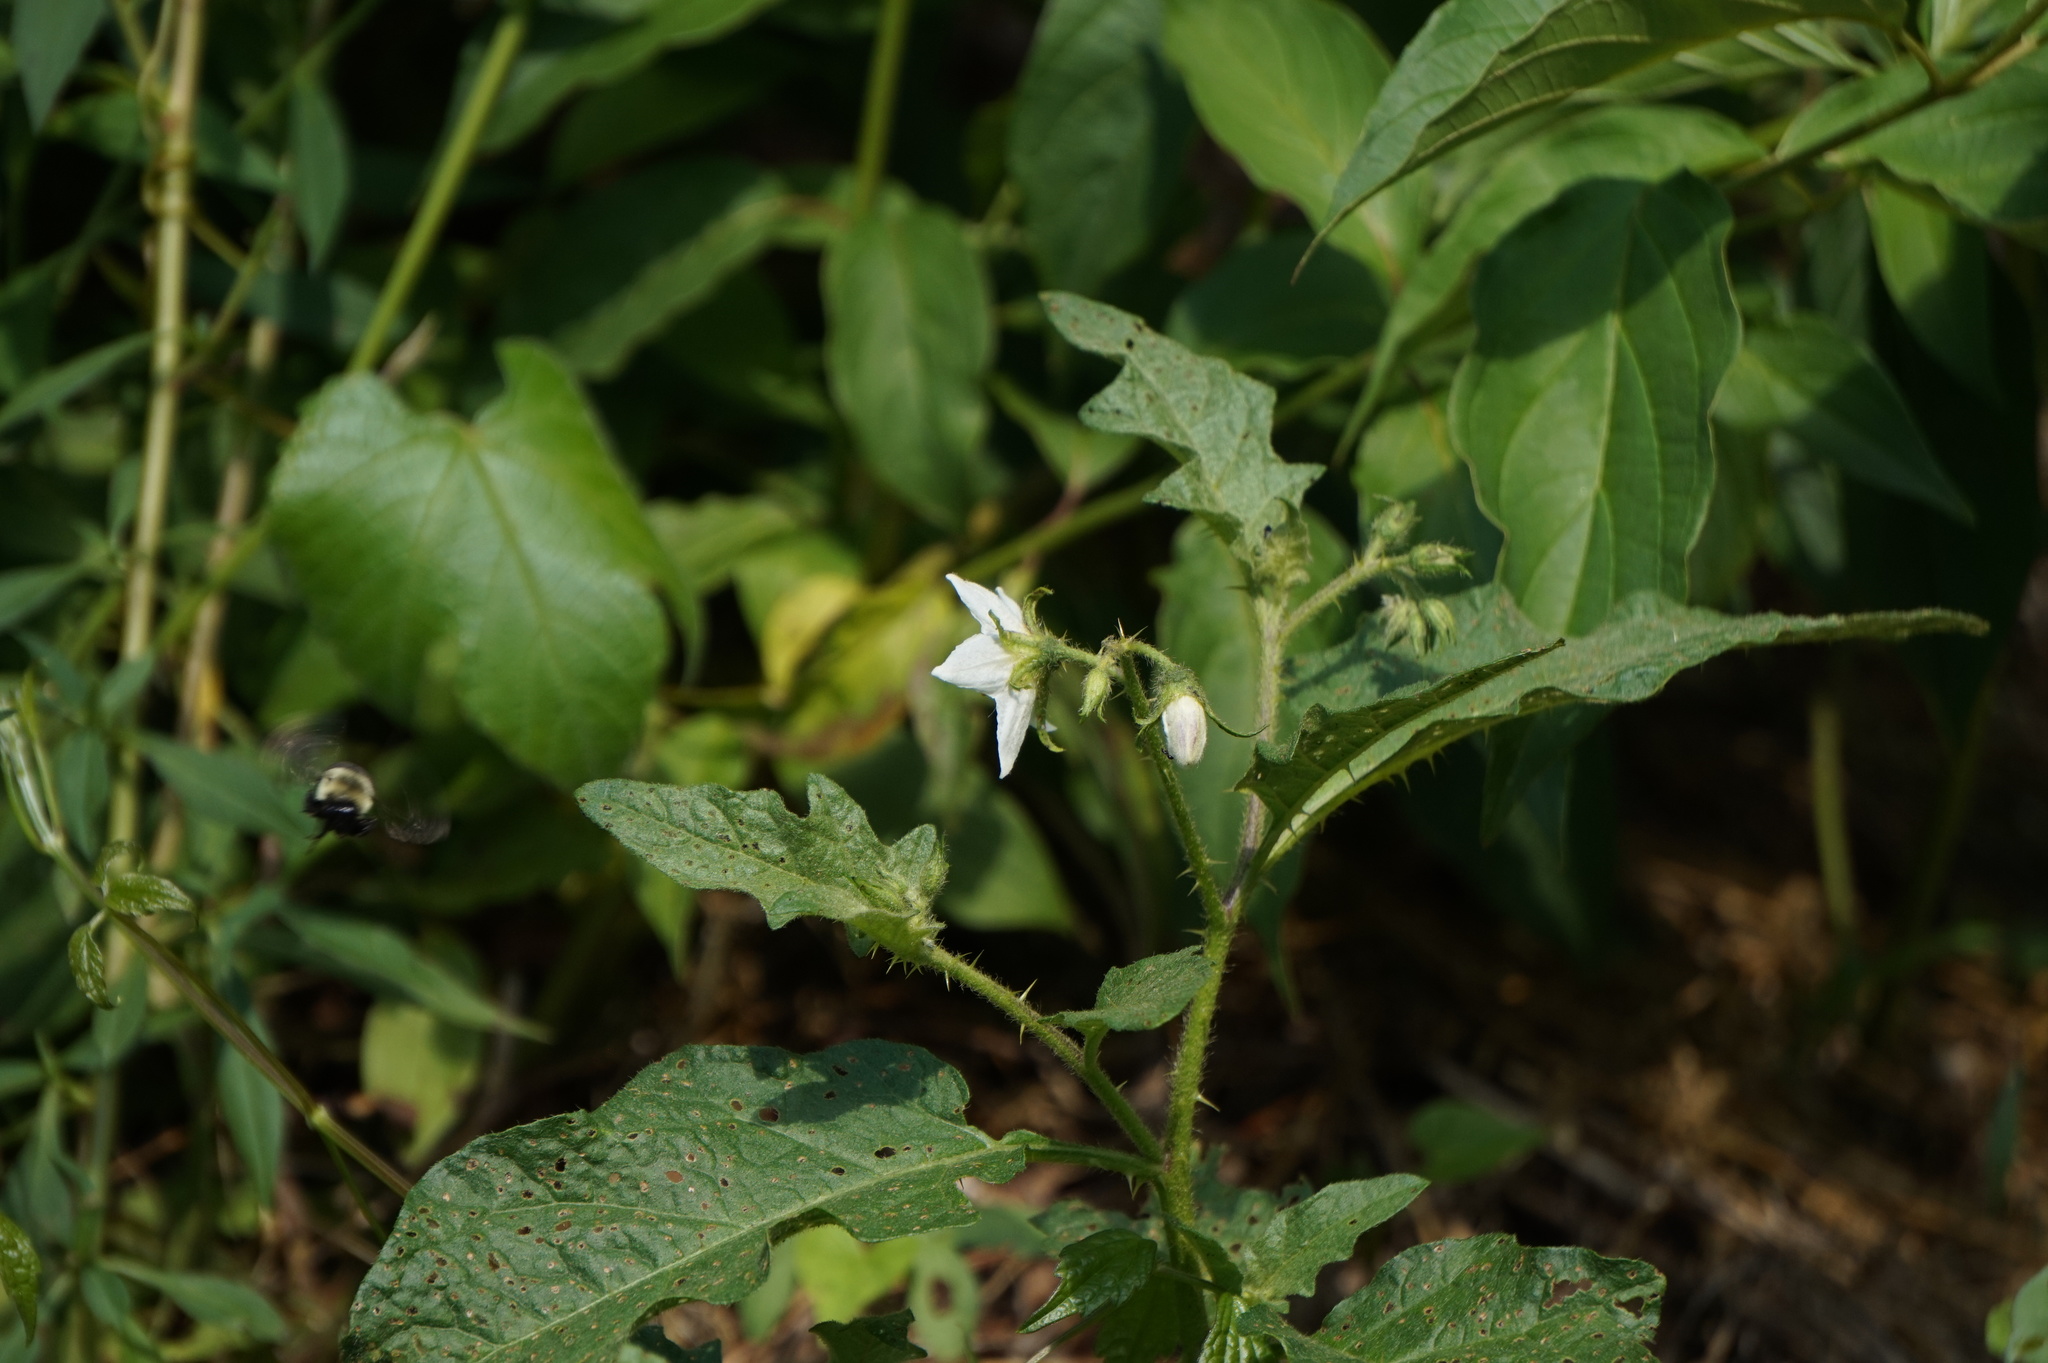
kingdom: Plantae
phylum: Tracheophyta
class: Magnoliopsida
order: Solanales
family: Solanaceae
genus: Solanum
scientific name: Solanum carolinense
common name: Horse-nettle
